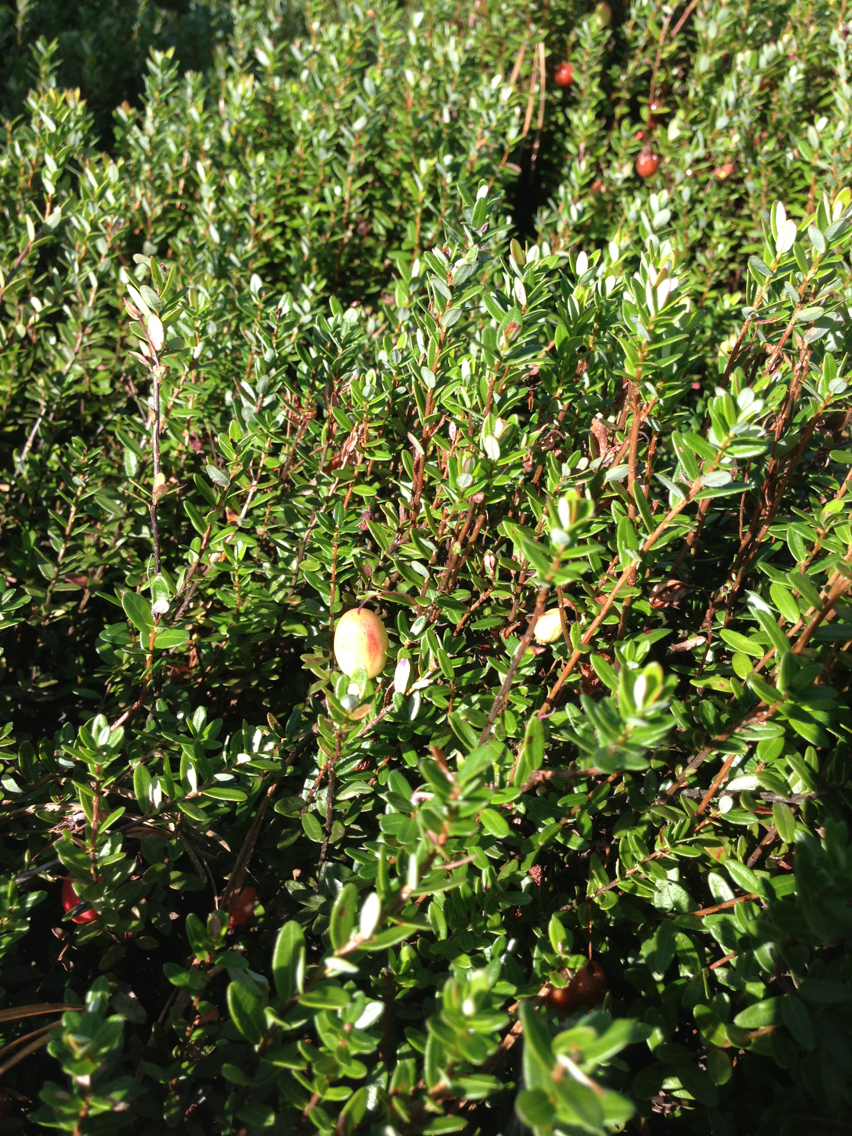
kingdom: Plantae
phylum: Tracheophyta
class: Magnoliopsida
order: Ericales
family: Ericaceae
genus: Vaccinium
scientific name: Vaccinium macrocarpon
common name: American cranberry
